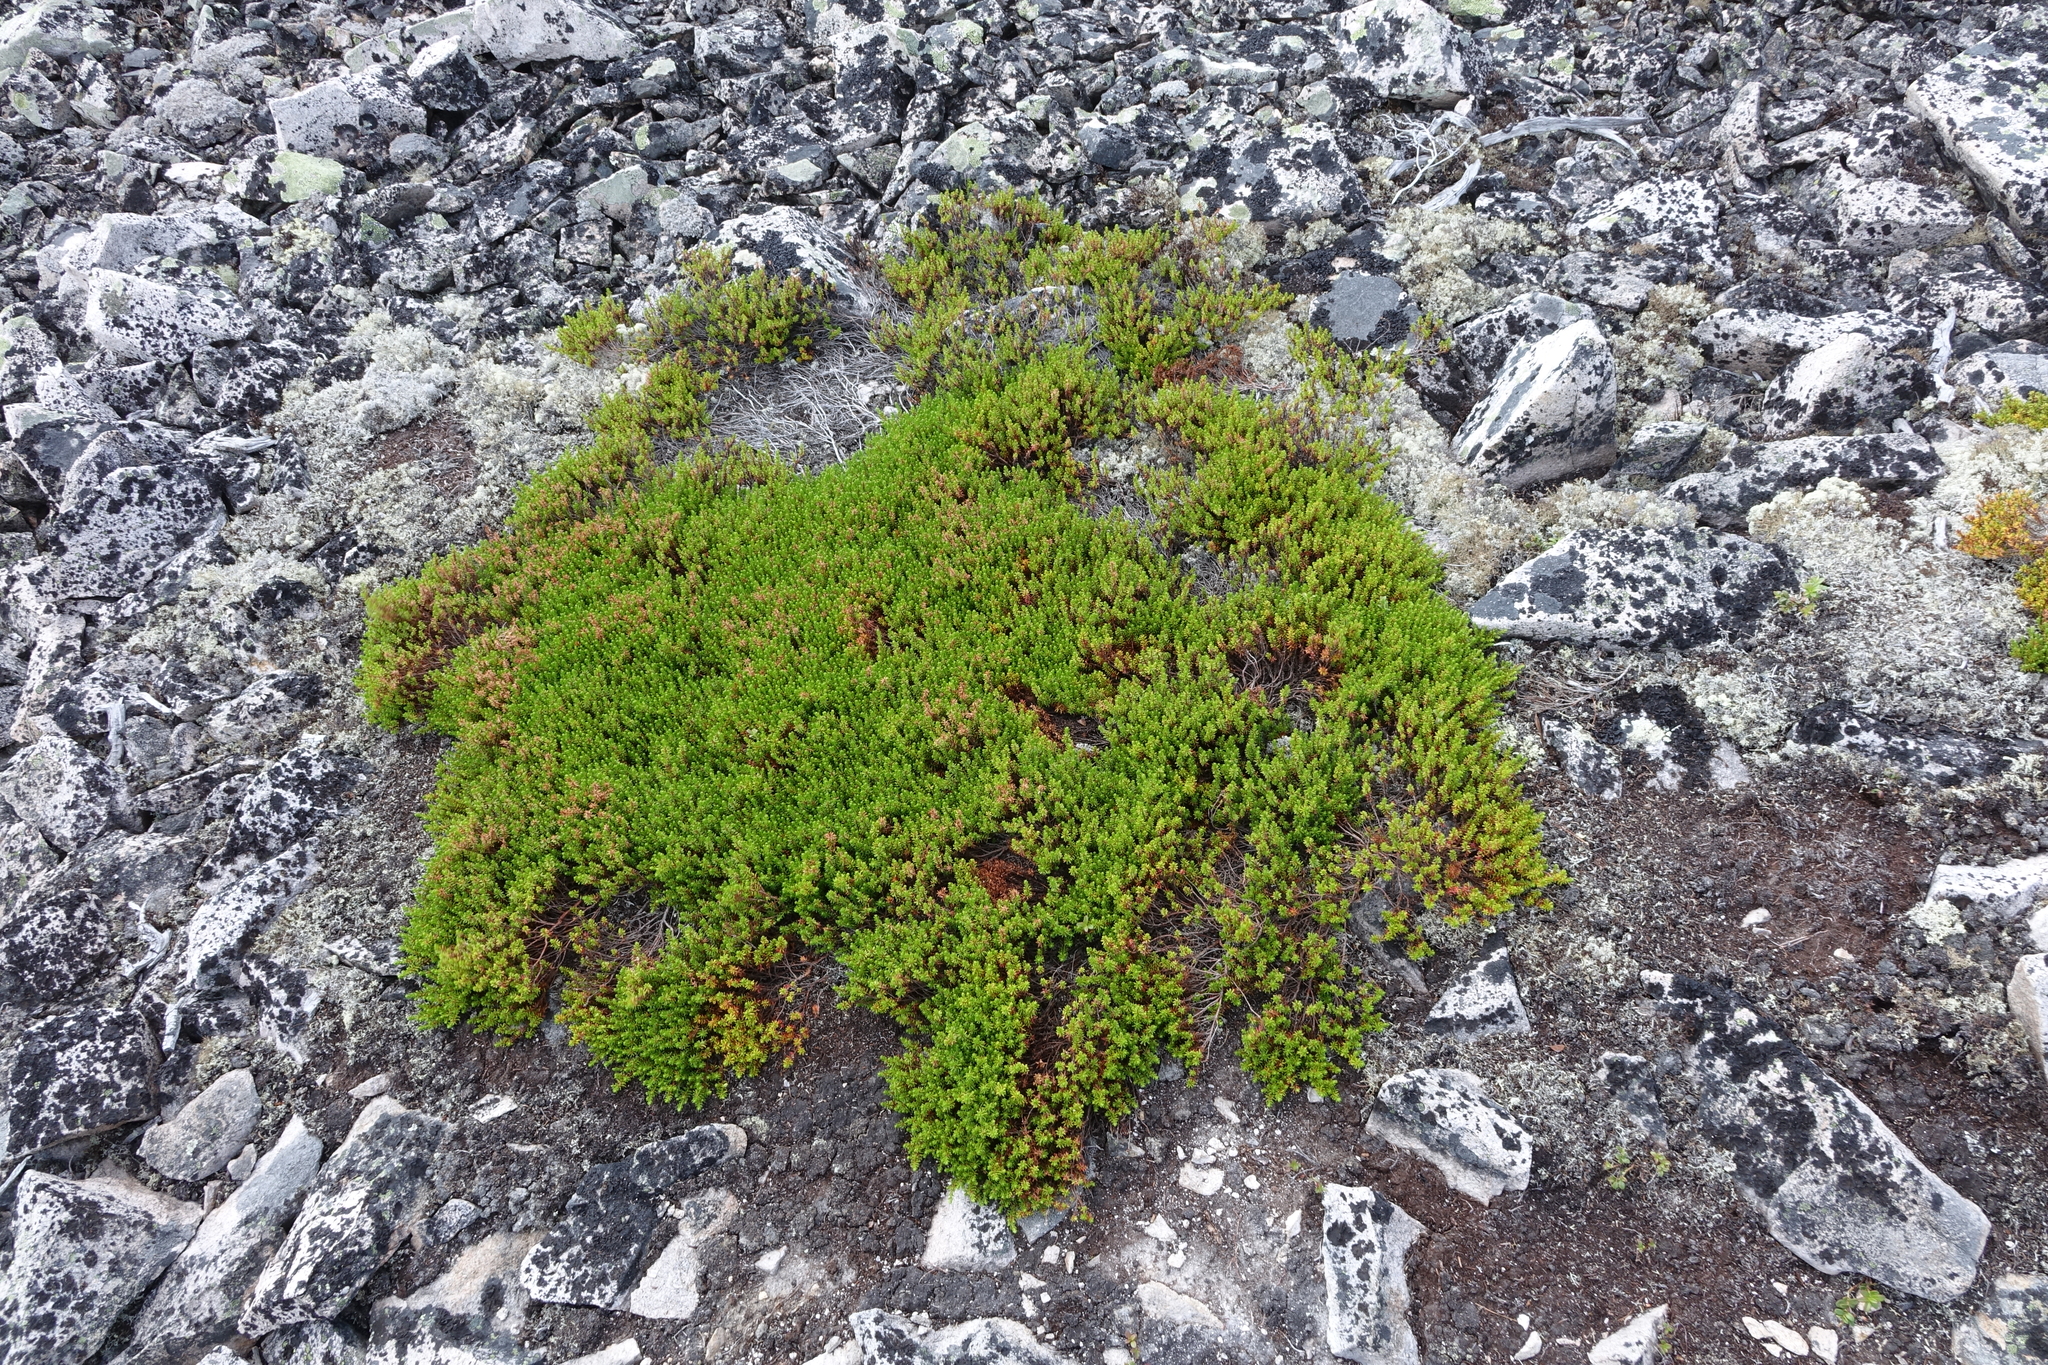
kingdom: Plantae
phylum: Tracheophyta
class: Magnoliopsida
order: Ericales
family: Ericaceae
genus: Empetrum
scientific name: Empetrum nigrum
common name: Black crowberry
